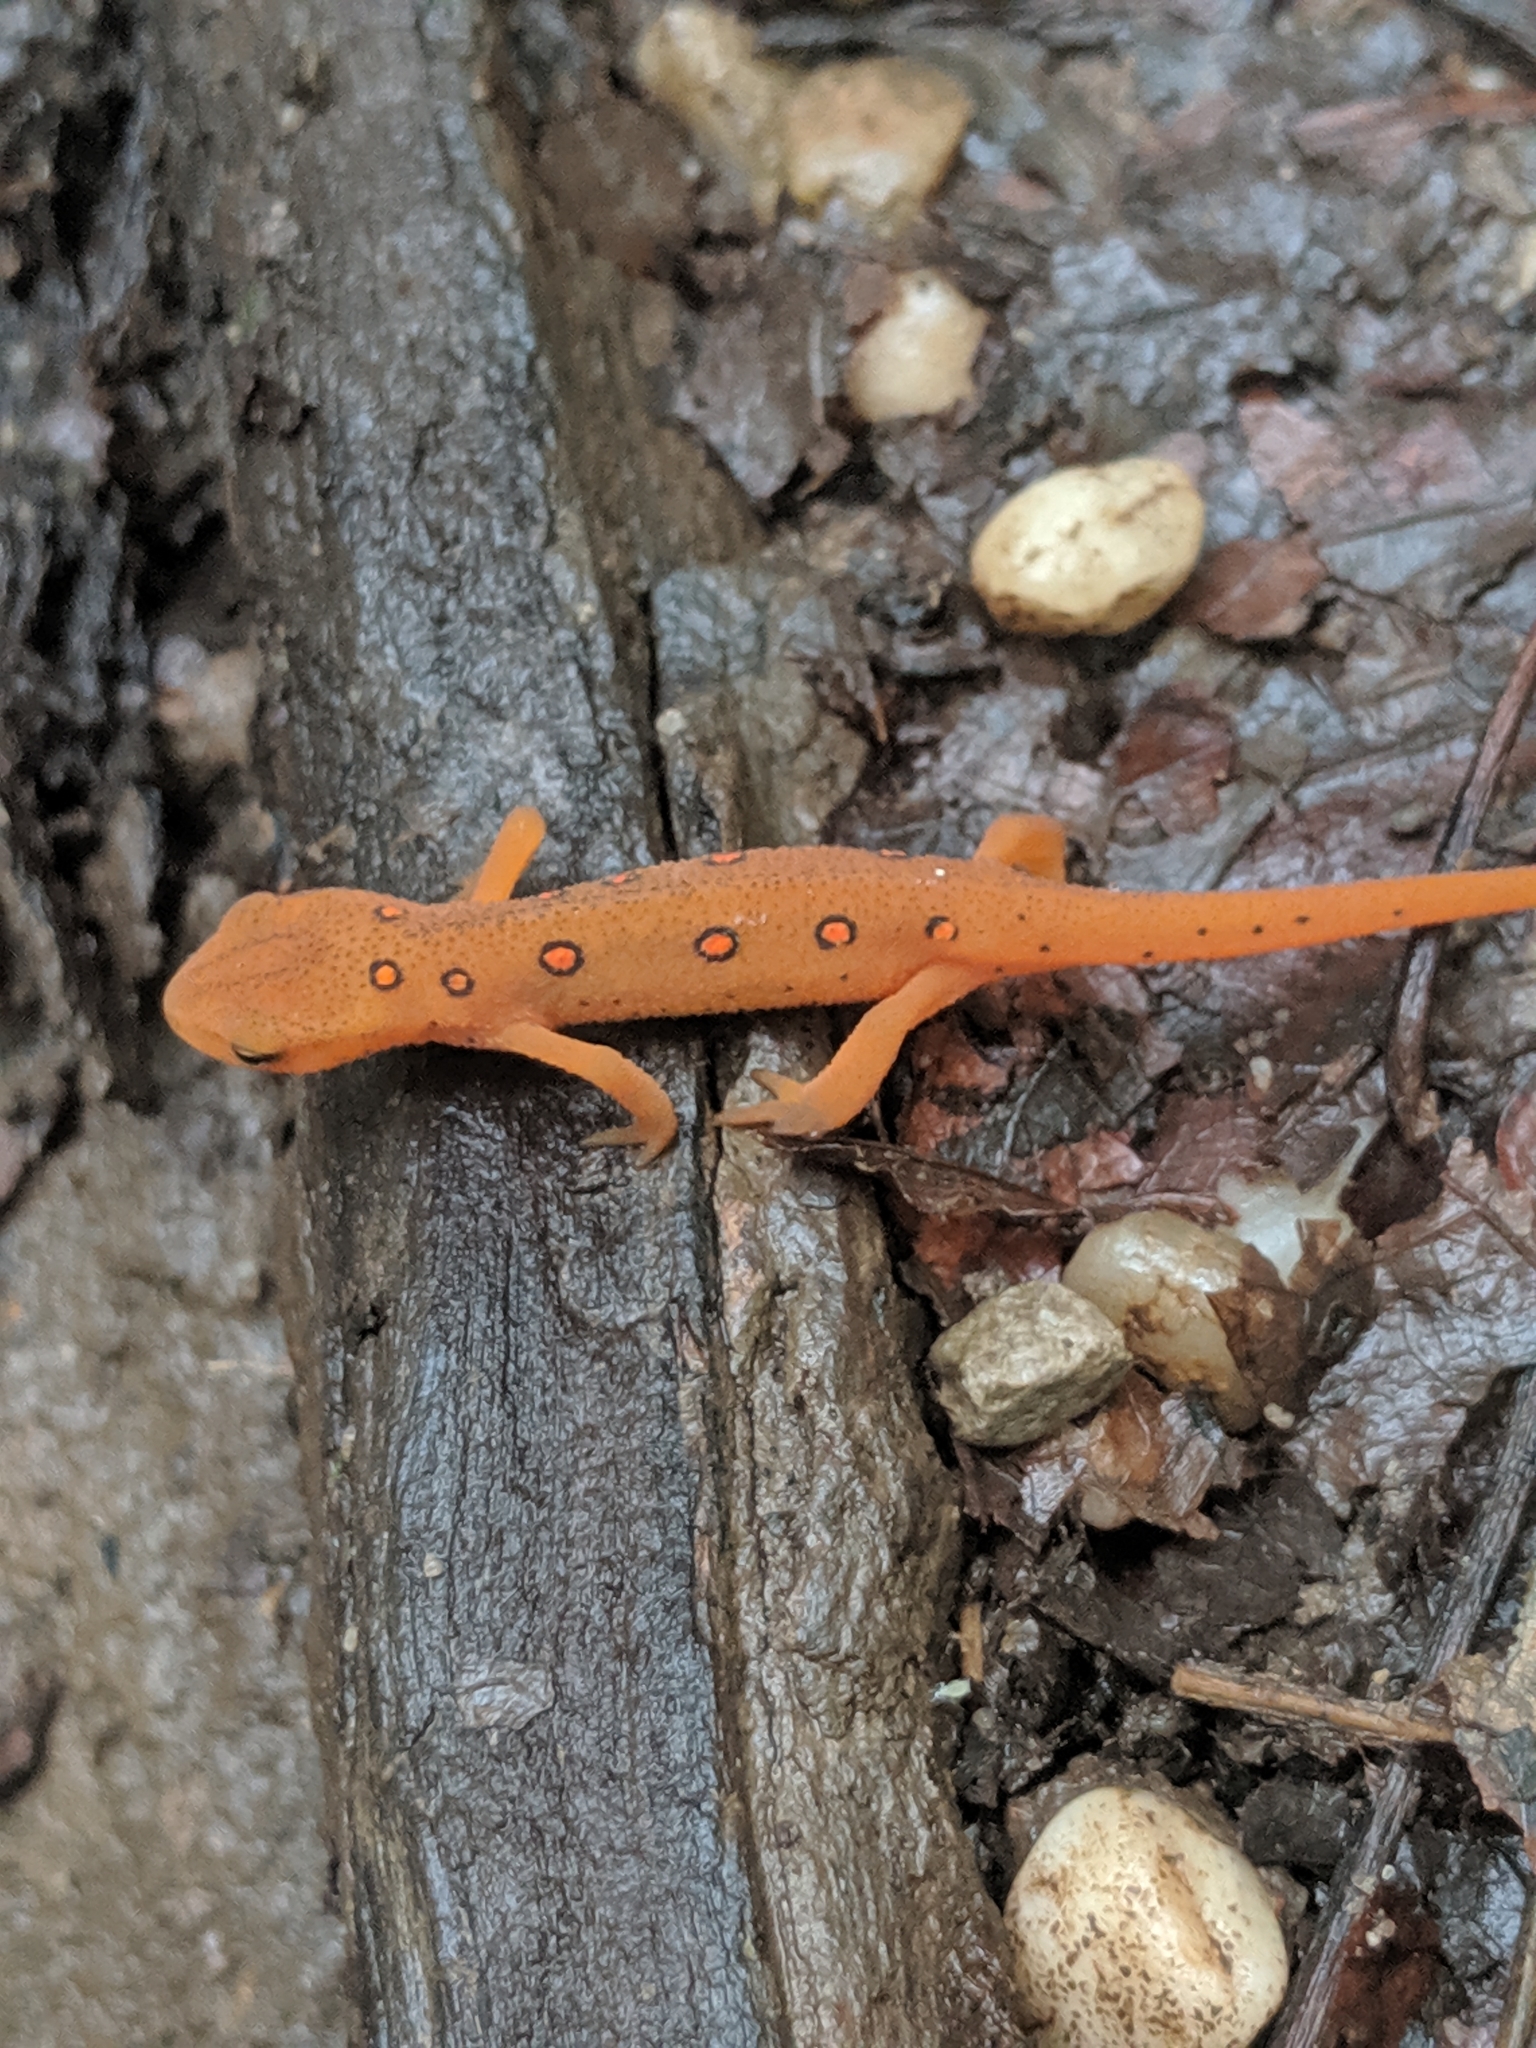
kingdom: Animalia
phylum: Chordata
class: Amphibia
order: Caudata
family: Salamandridae
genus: Notophthalmus
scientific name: Notophthalmus viridescens
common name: Eastern newt
